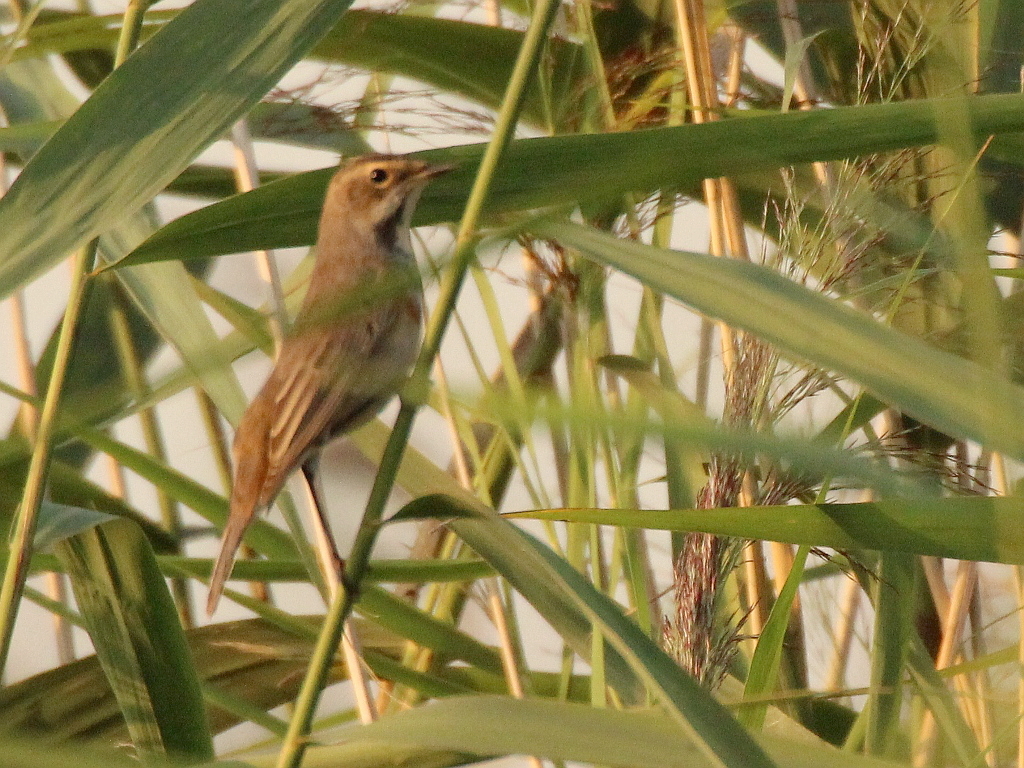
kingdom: Animalia
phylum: Chordata
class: Aves
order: Passeriformes
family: Muscicapidae
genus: Luscinia
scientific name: Luscinia svecica
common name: Bluethroat
